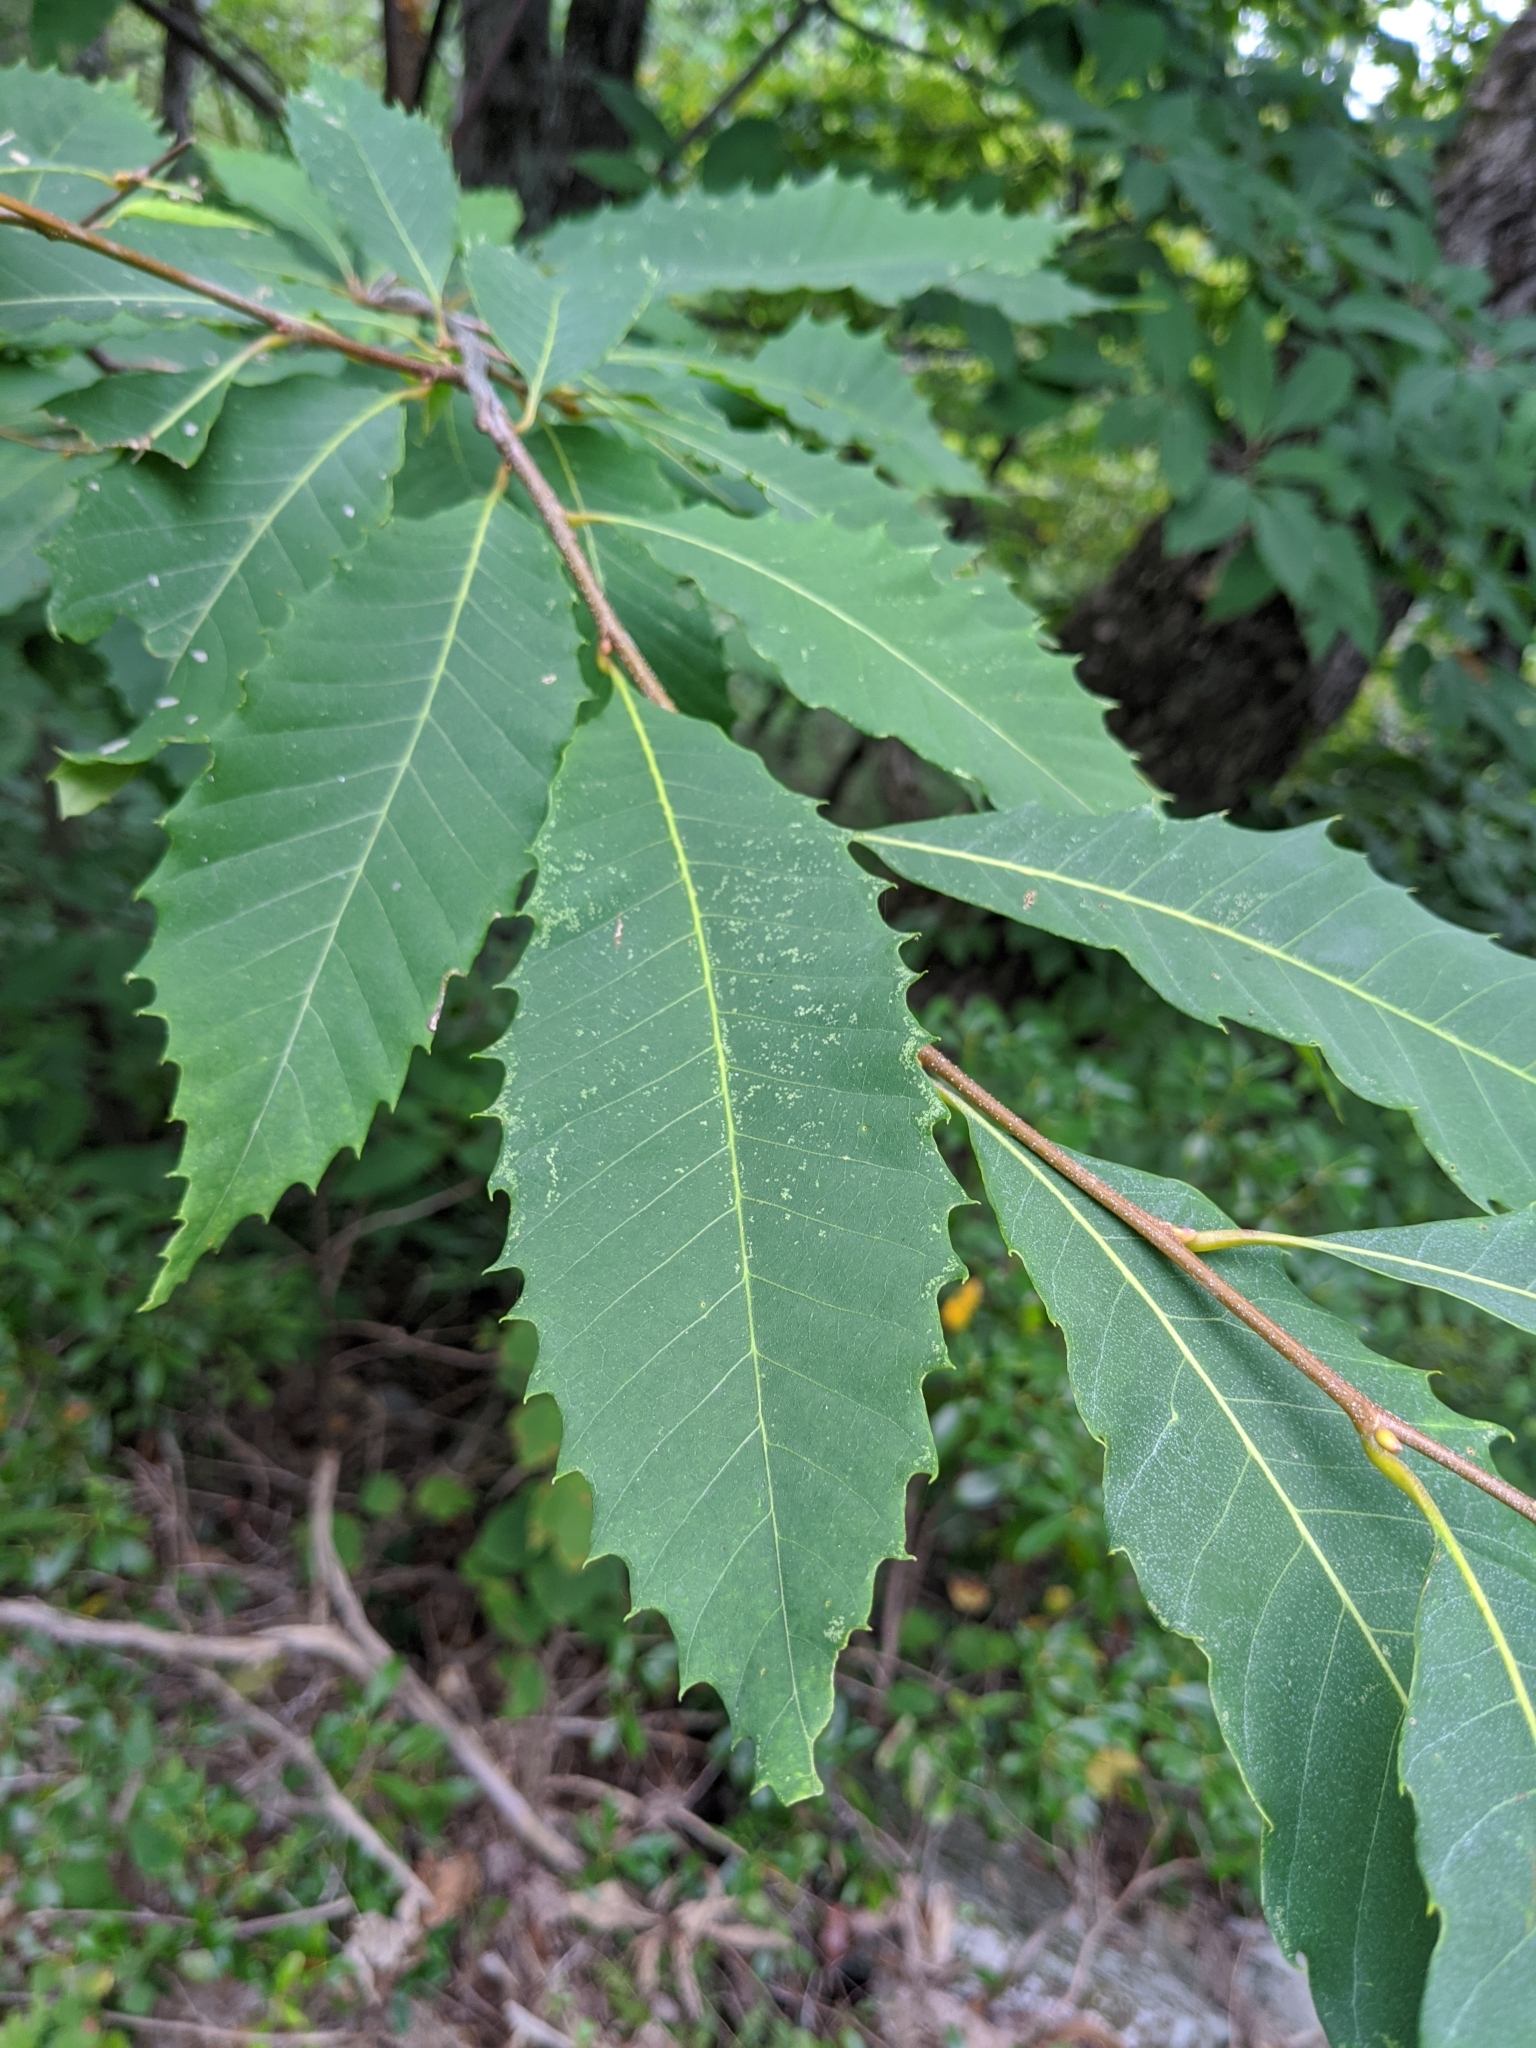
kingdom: Plantae
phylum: Tracheophyta
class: Magnoliopsida
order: Fagales
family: Fagaceae
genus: Castanea
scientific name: Castanea dentata
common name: American chestnut
